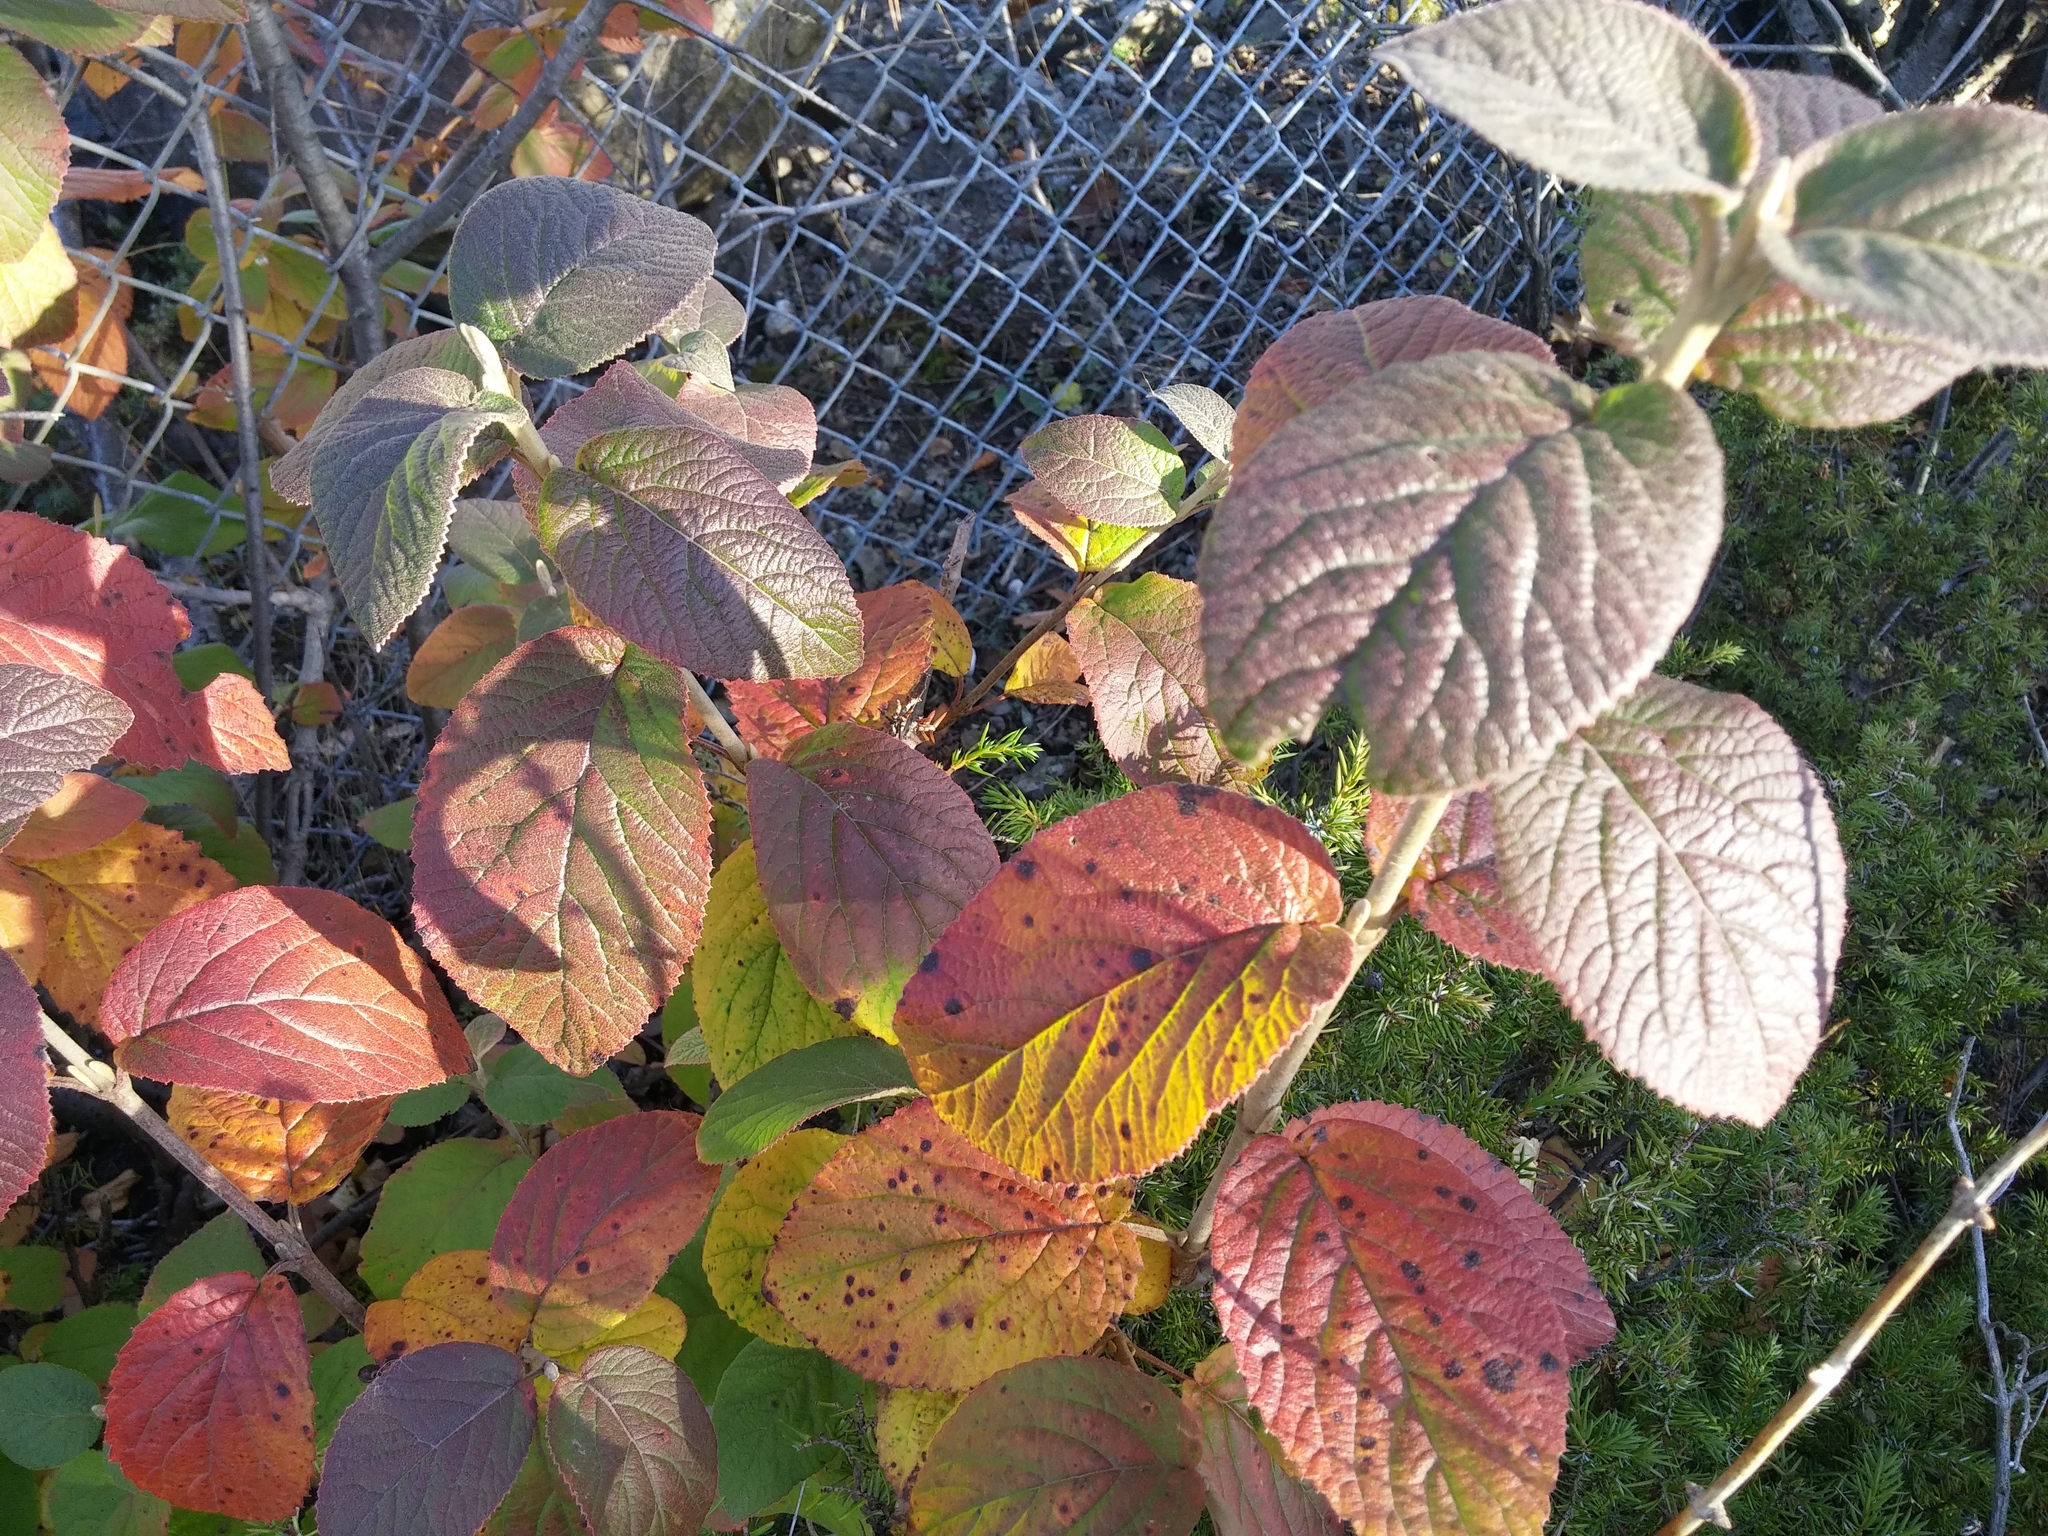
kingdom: Plantae
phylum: Tracheophyta
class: Magnoliopsida
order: Dipsacales
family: Viburnaceae
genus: Viburnum
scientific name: Viburnum lantana
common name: Wayfaring tree
